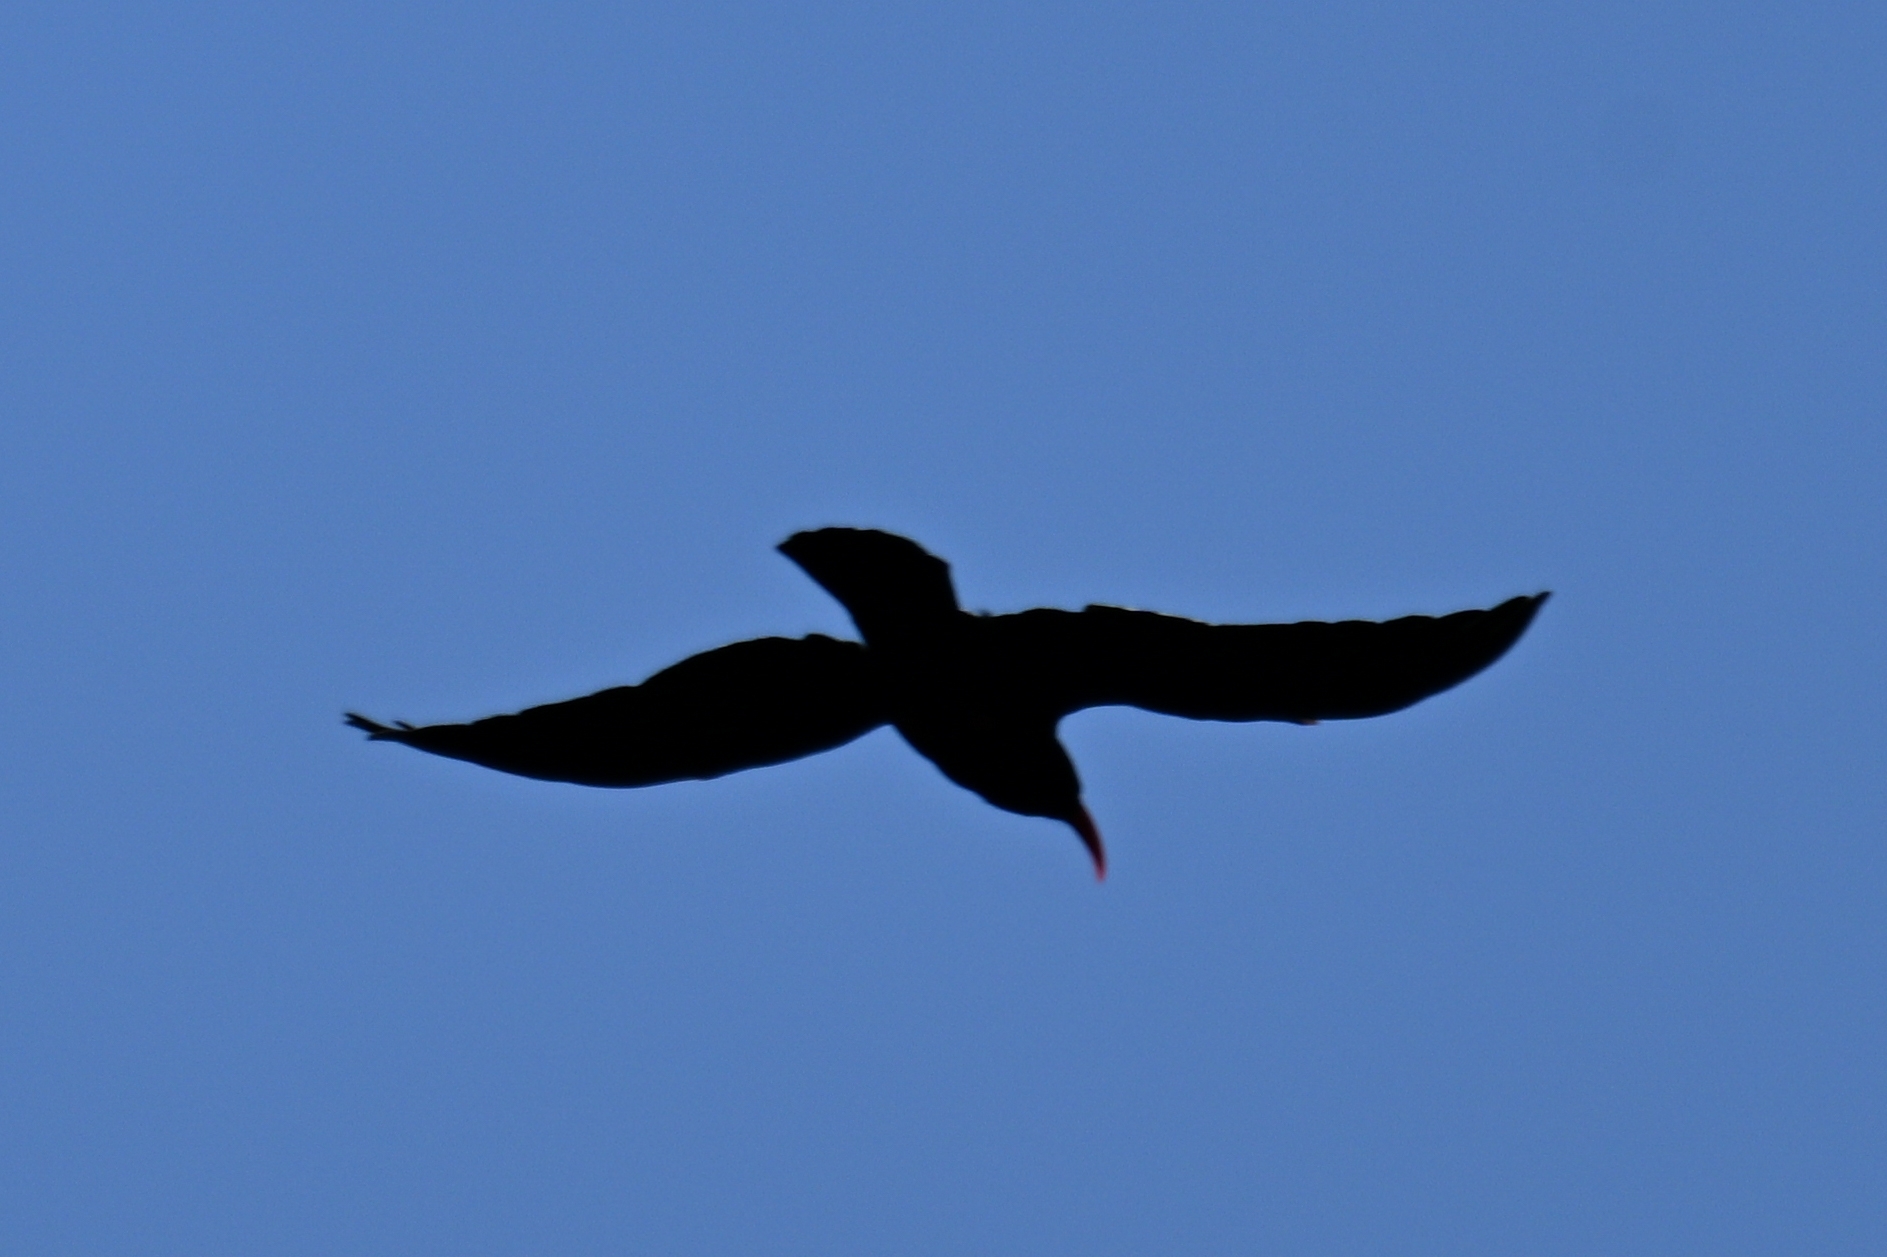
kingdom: Animalia
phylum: Chordata
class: Aves
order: Passeriformes
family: Corvidae
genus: Pyrrhocorax
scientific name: Pyrrhocorax pyrrhocorax
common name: Red-billed chough
